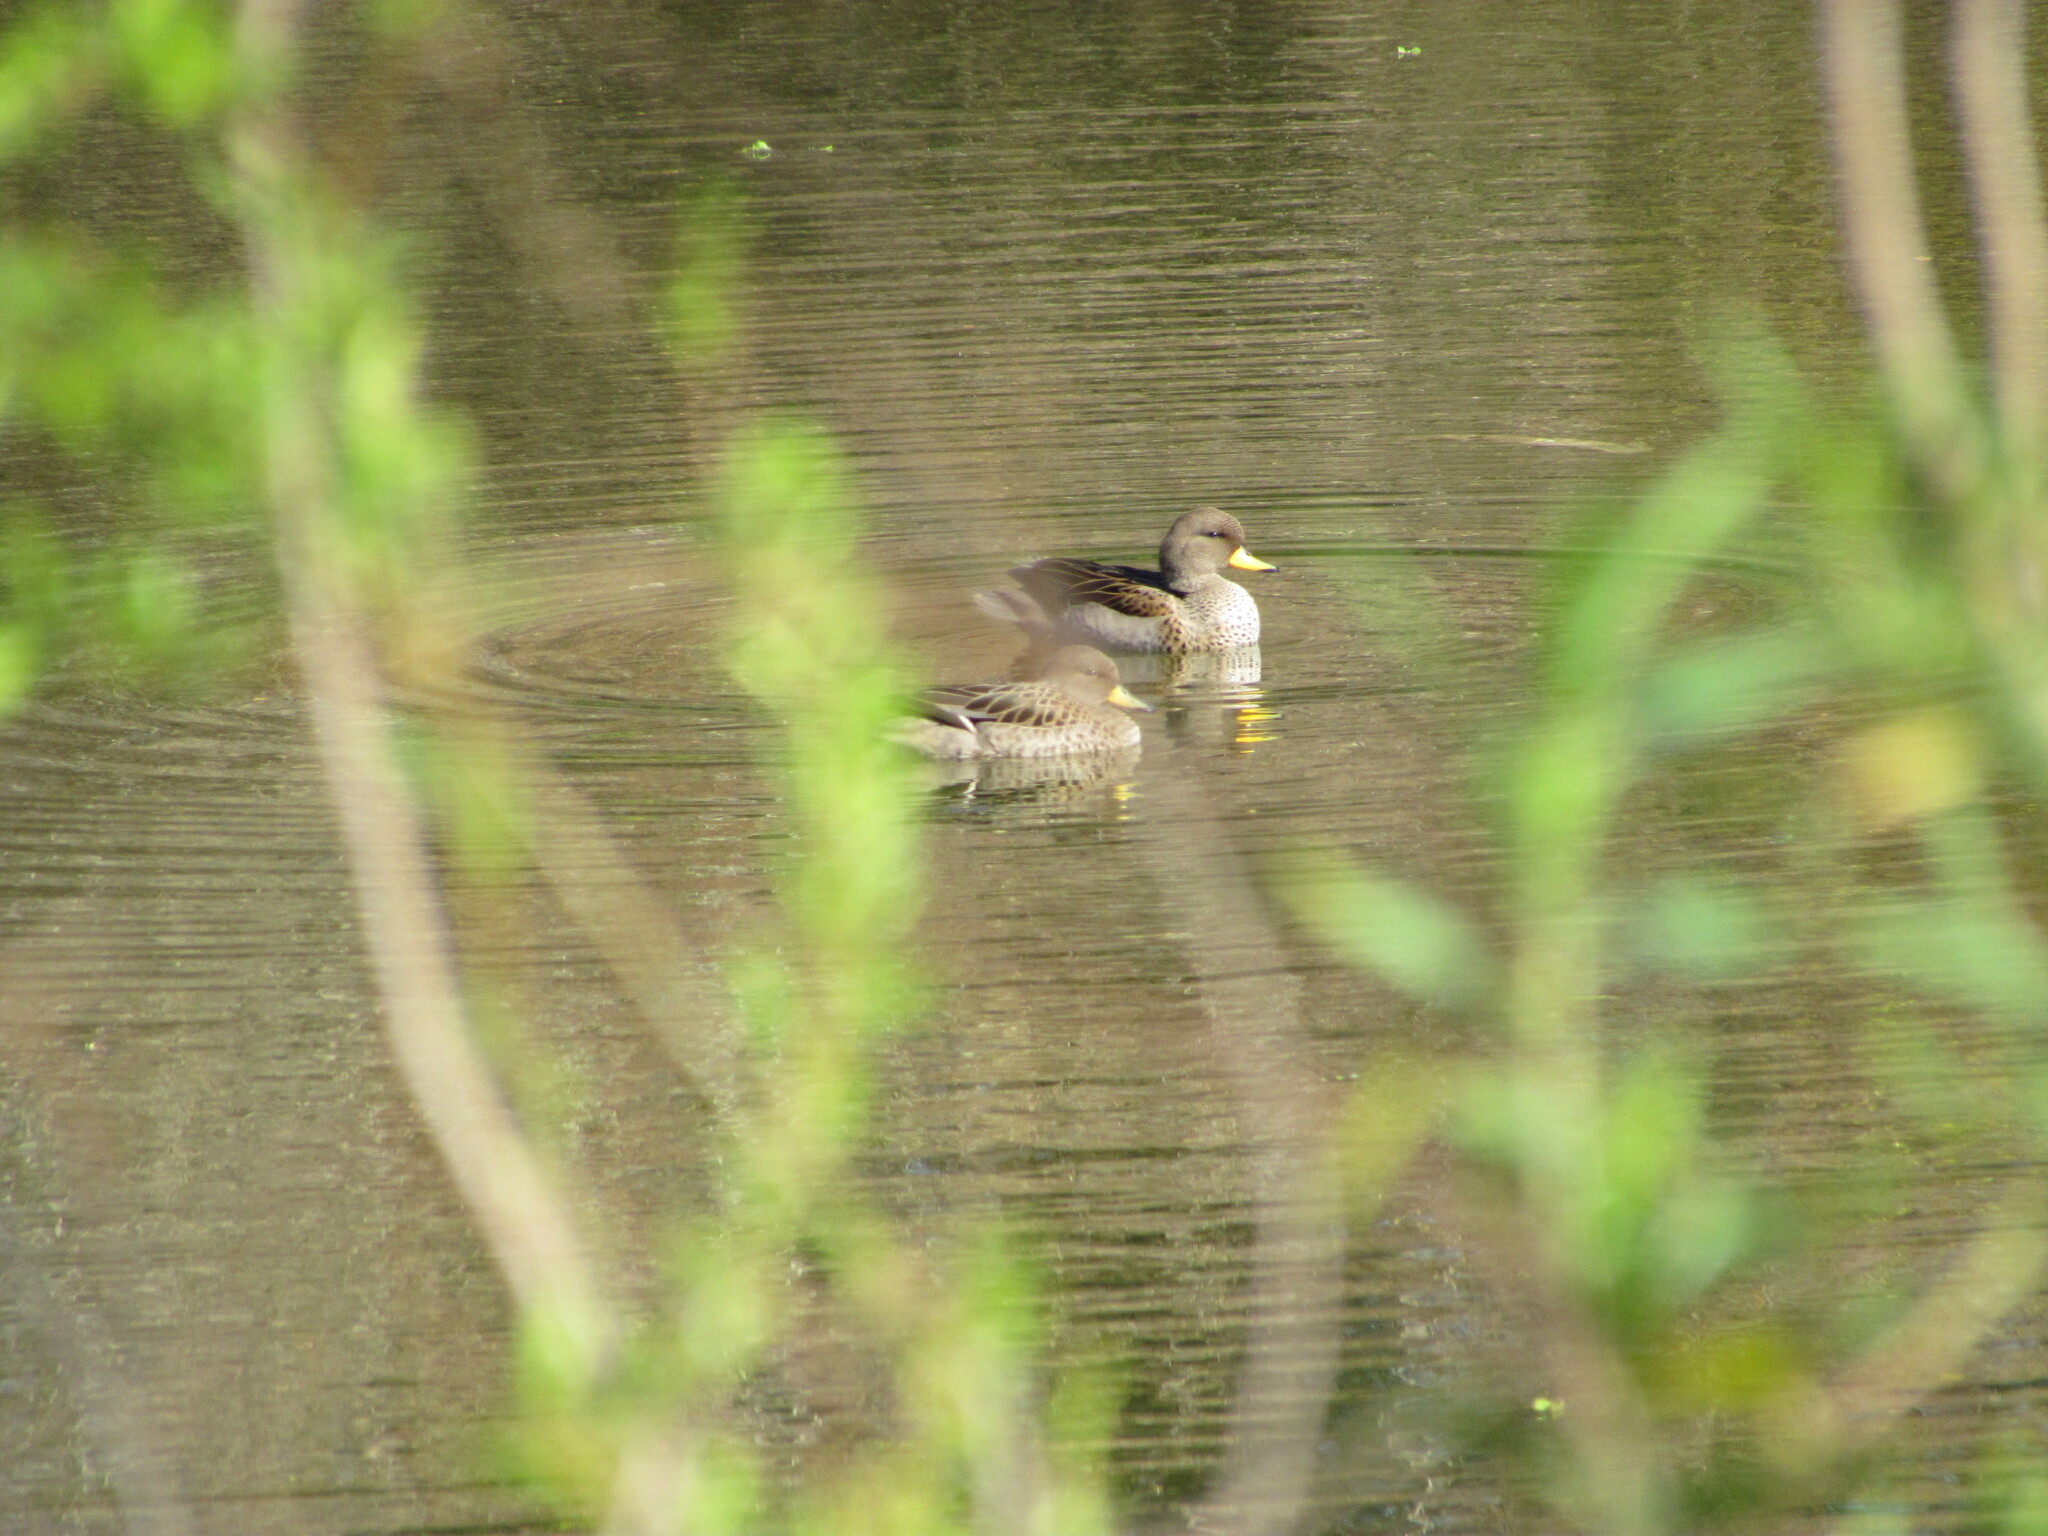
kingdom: Animalia
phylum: Chordata
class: Aves
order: Anseriformes
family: Anatidae
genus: Anas
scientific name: Anas flavirostris
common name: Yellow-billed teal
